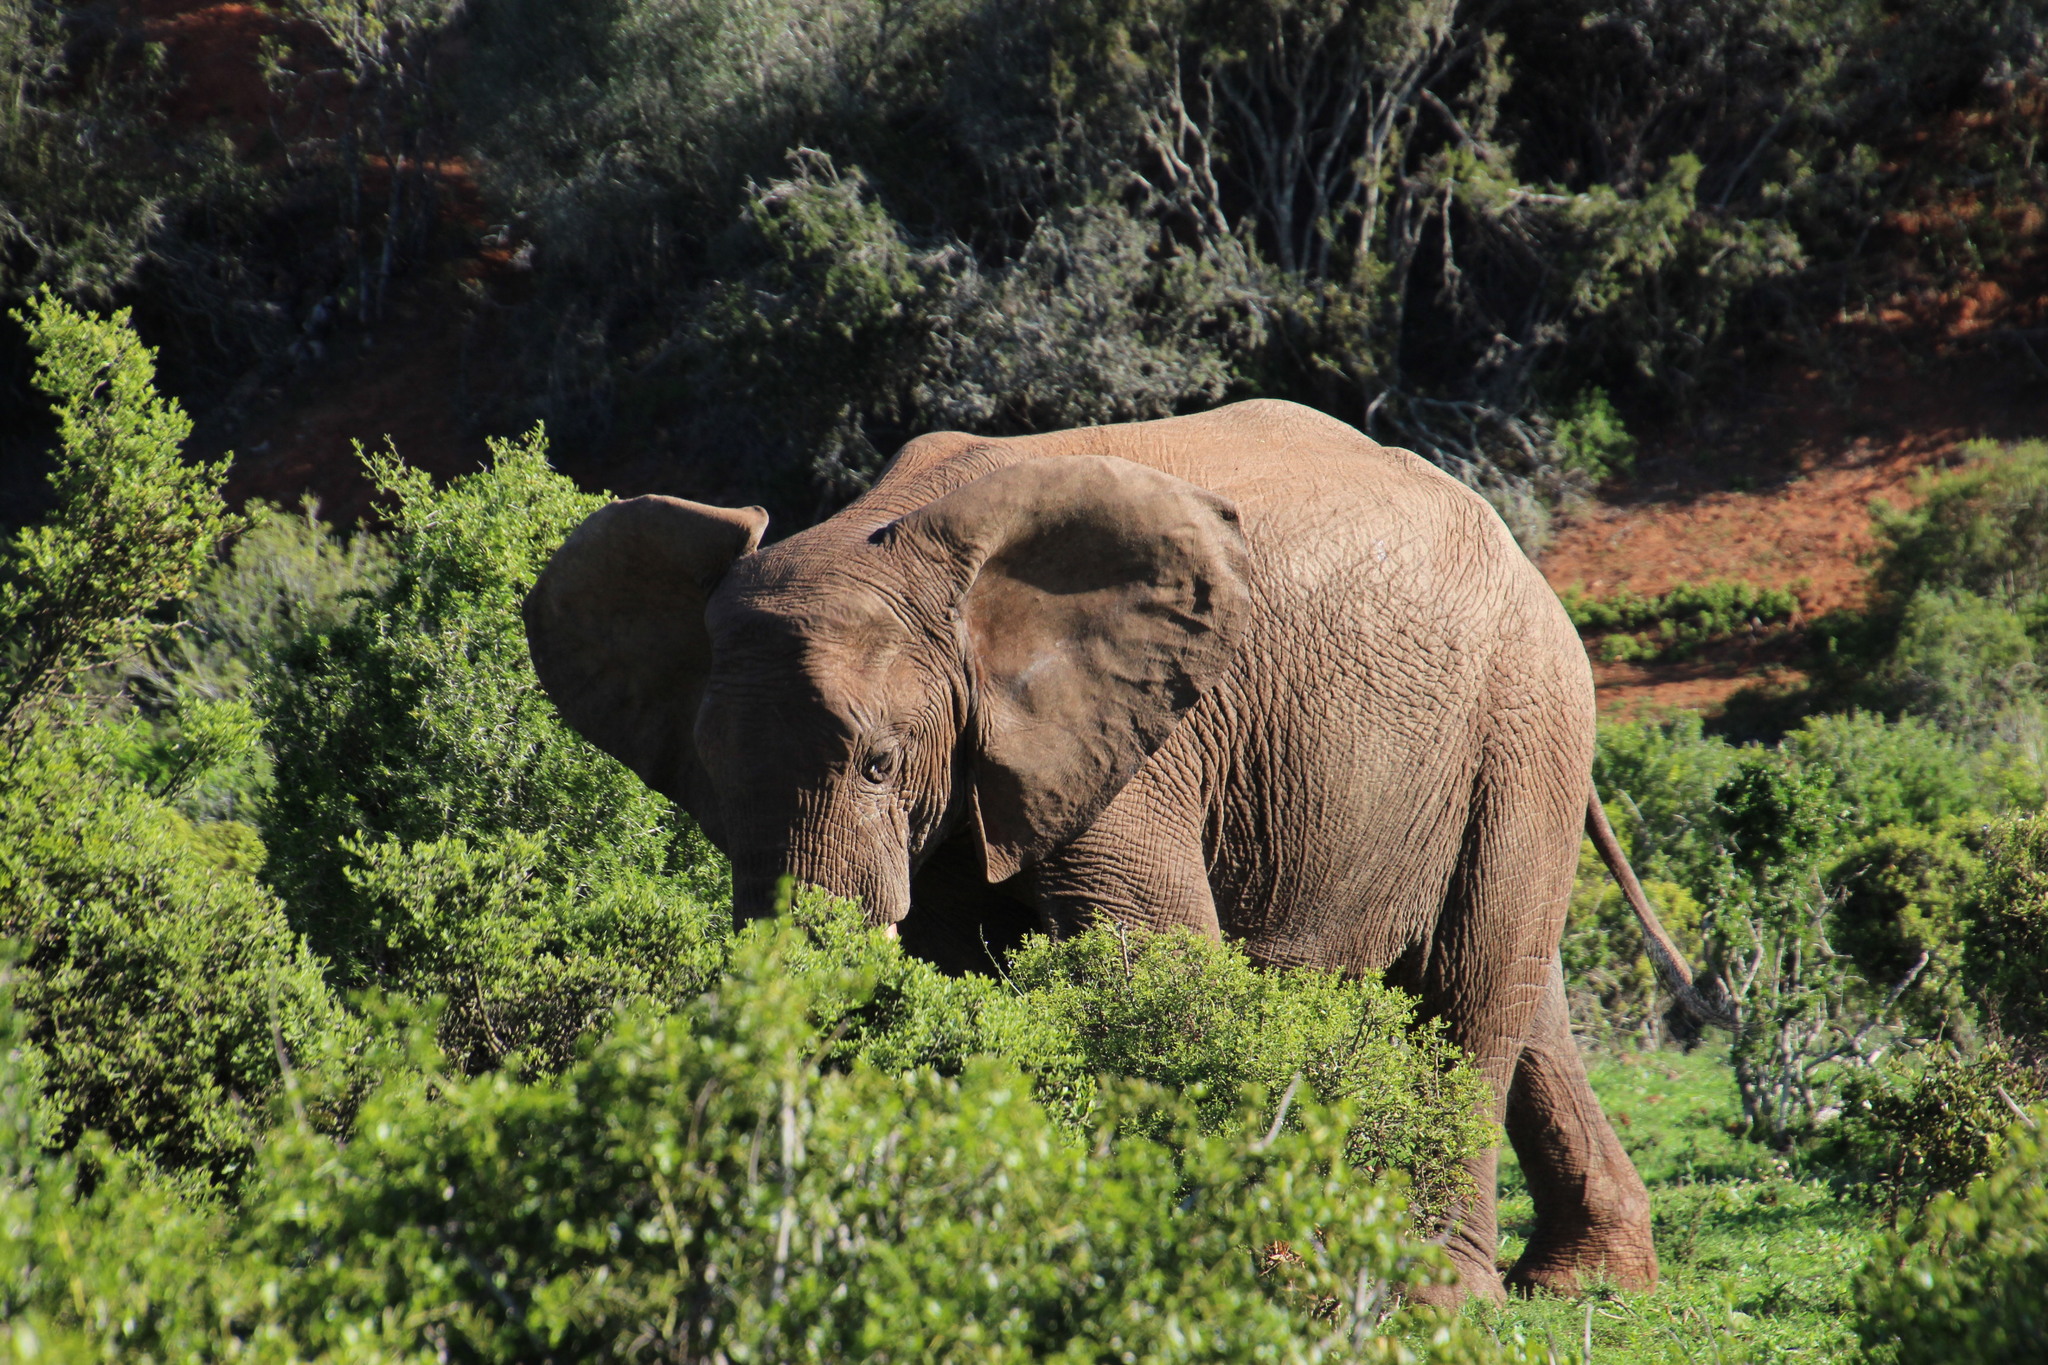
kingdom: Animalia
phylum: Chordata
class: Mammalia
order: Proboscidea
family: Elephantidae
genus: Loxodonta
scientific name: Loxodonta africana
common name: African elephant
